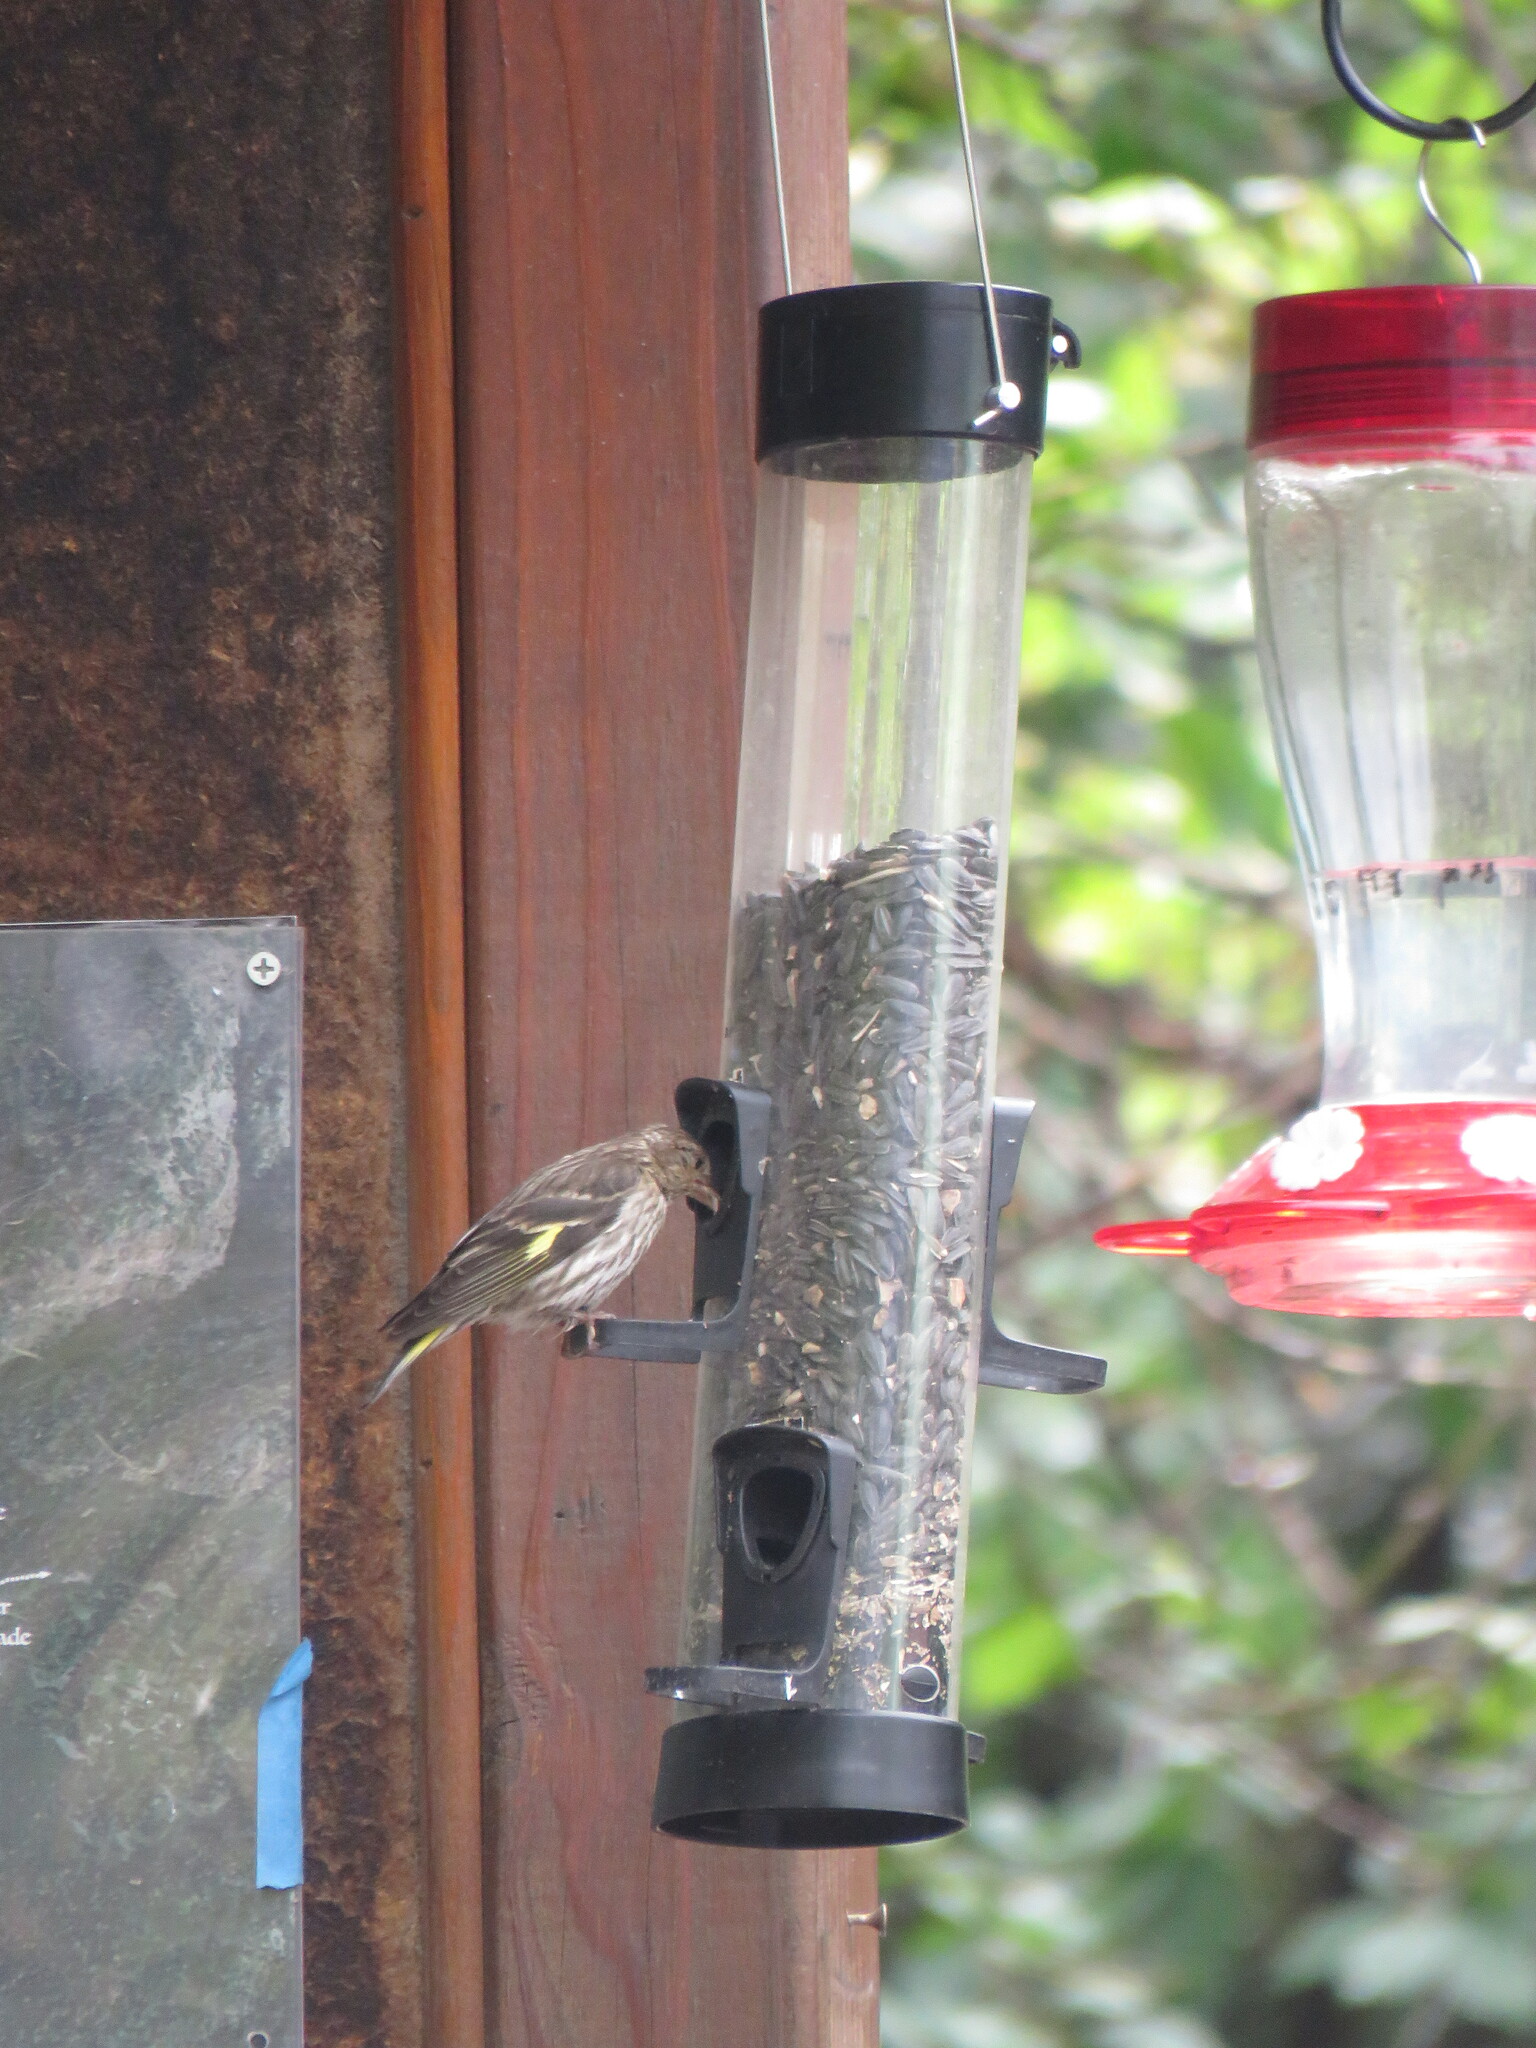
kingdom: Animalia
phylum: Chordata
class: Aves
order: Passeriformes
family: Fringillidae
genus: Spinus
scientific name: Spinus pinus
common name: Pine siskin
